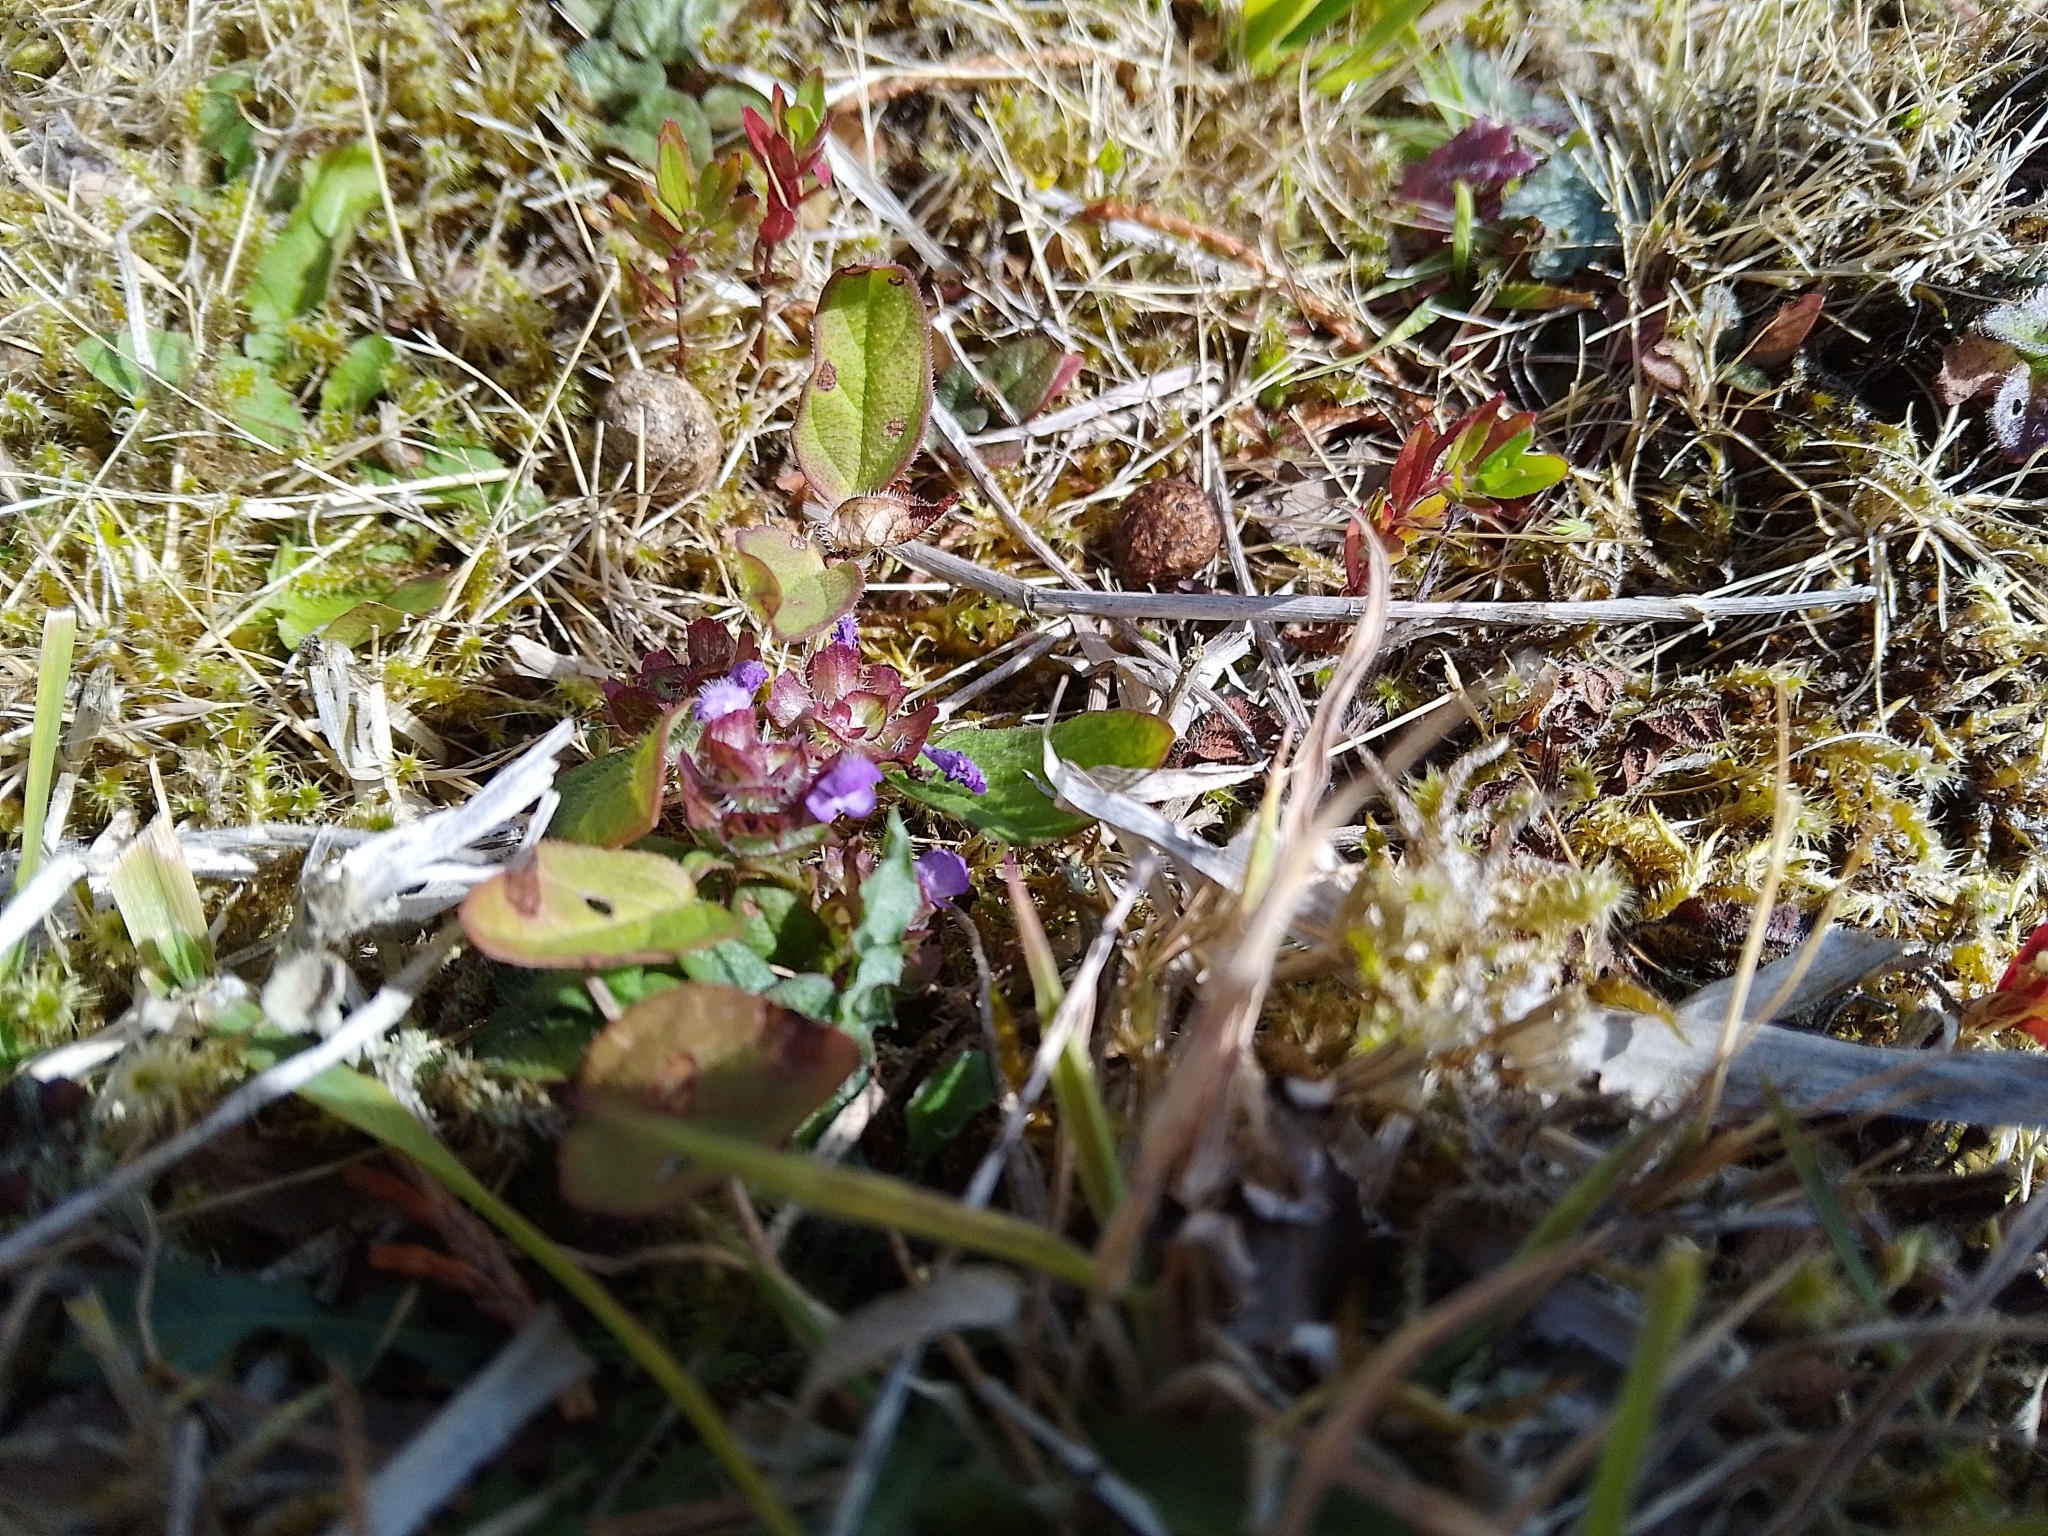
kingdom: Plantae
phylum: Tracheophyta
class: Magnoliopsida
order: Lamiales
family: Lamiaceae
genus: Prunella
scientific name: Prunella vulgaris
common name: Heal-all
